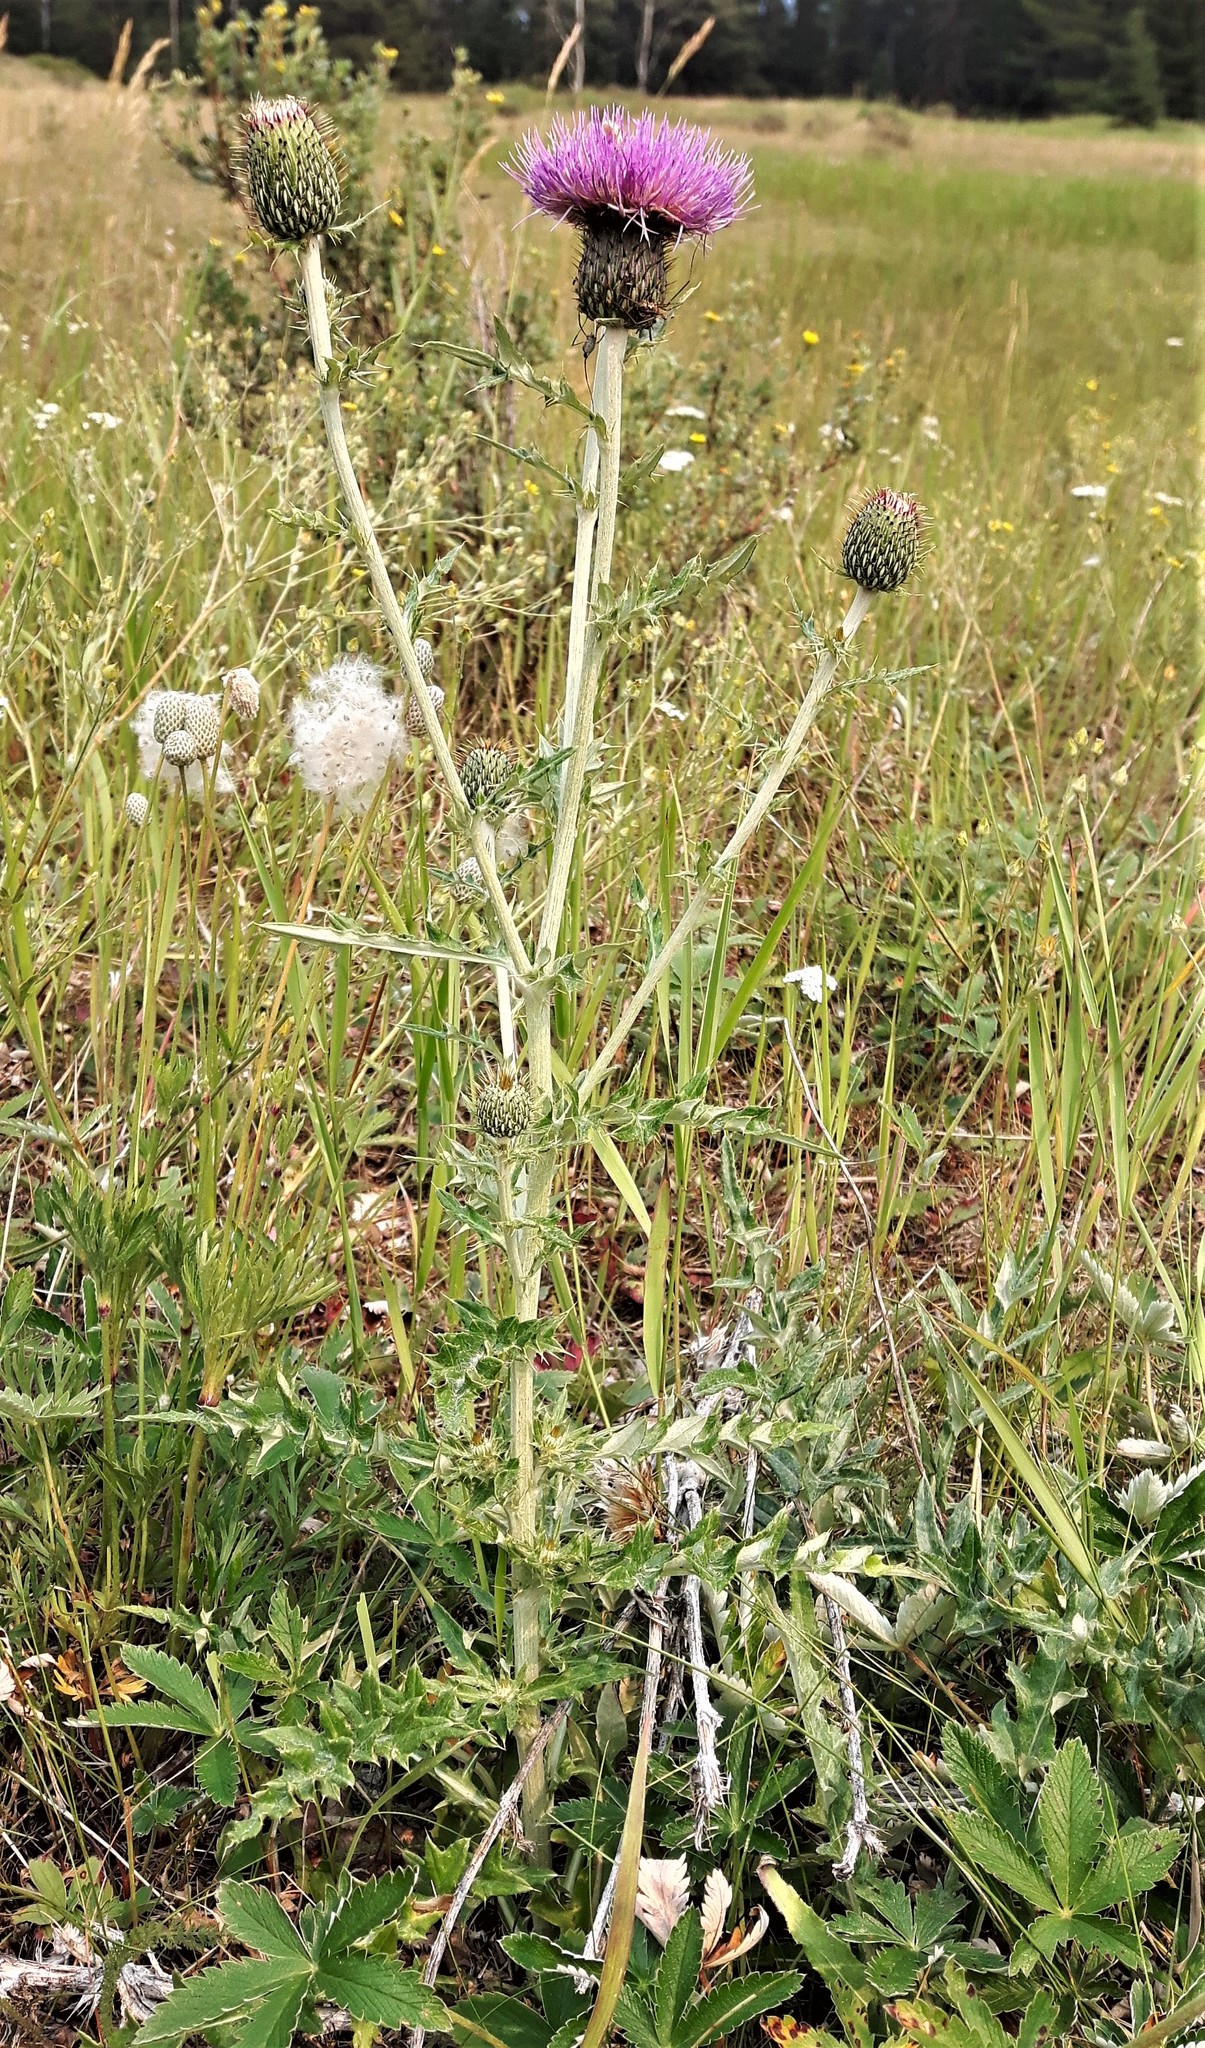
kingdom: Plantae
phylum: Tracheophyta
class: Magnoliopsida
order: Asterales
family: Asteraceae
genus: Cirsium
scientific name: Cirsium flodmanii
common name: Flodman's thistle
